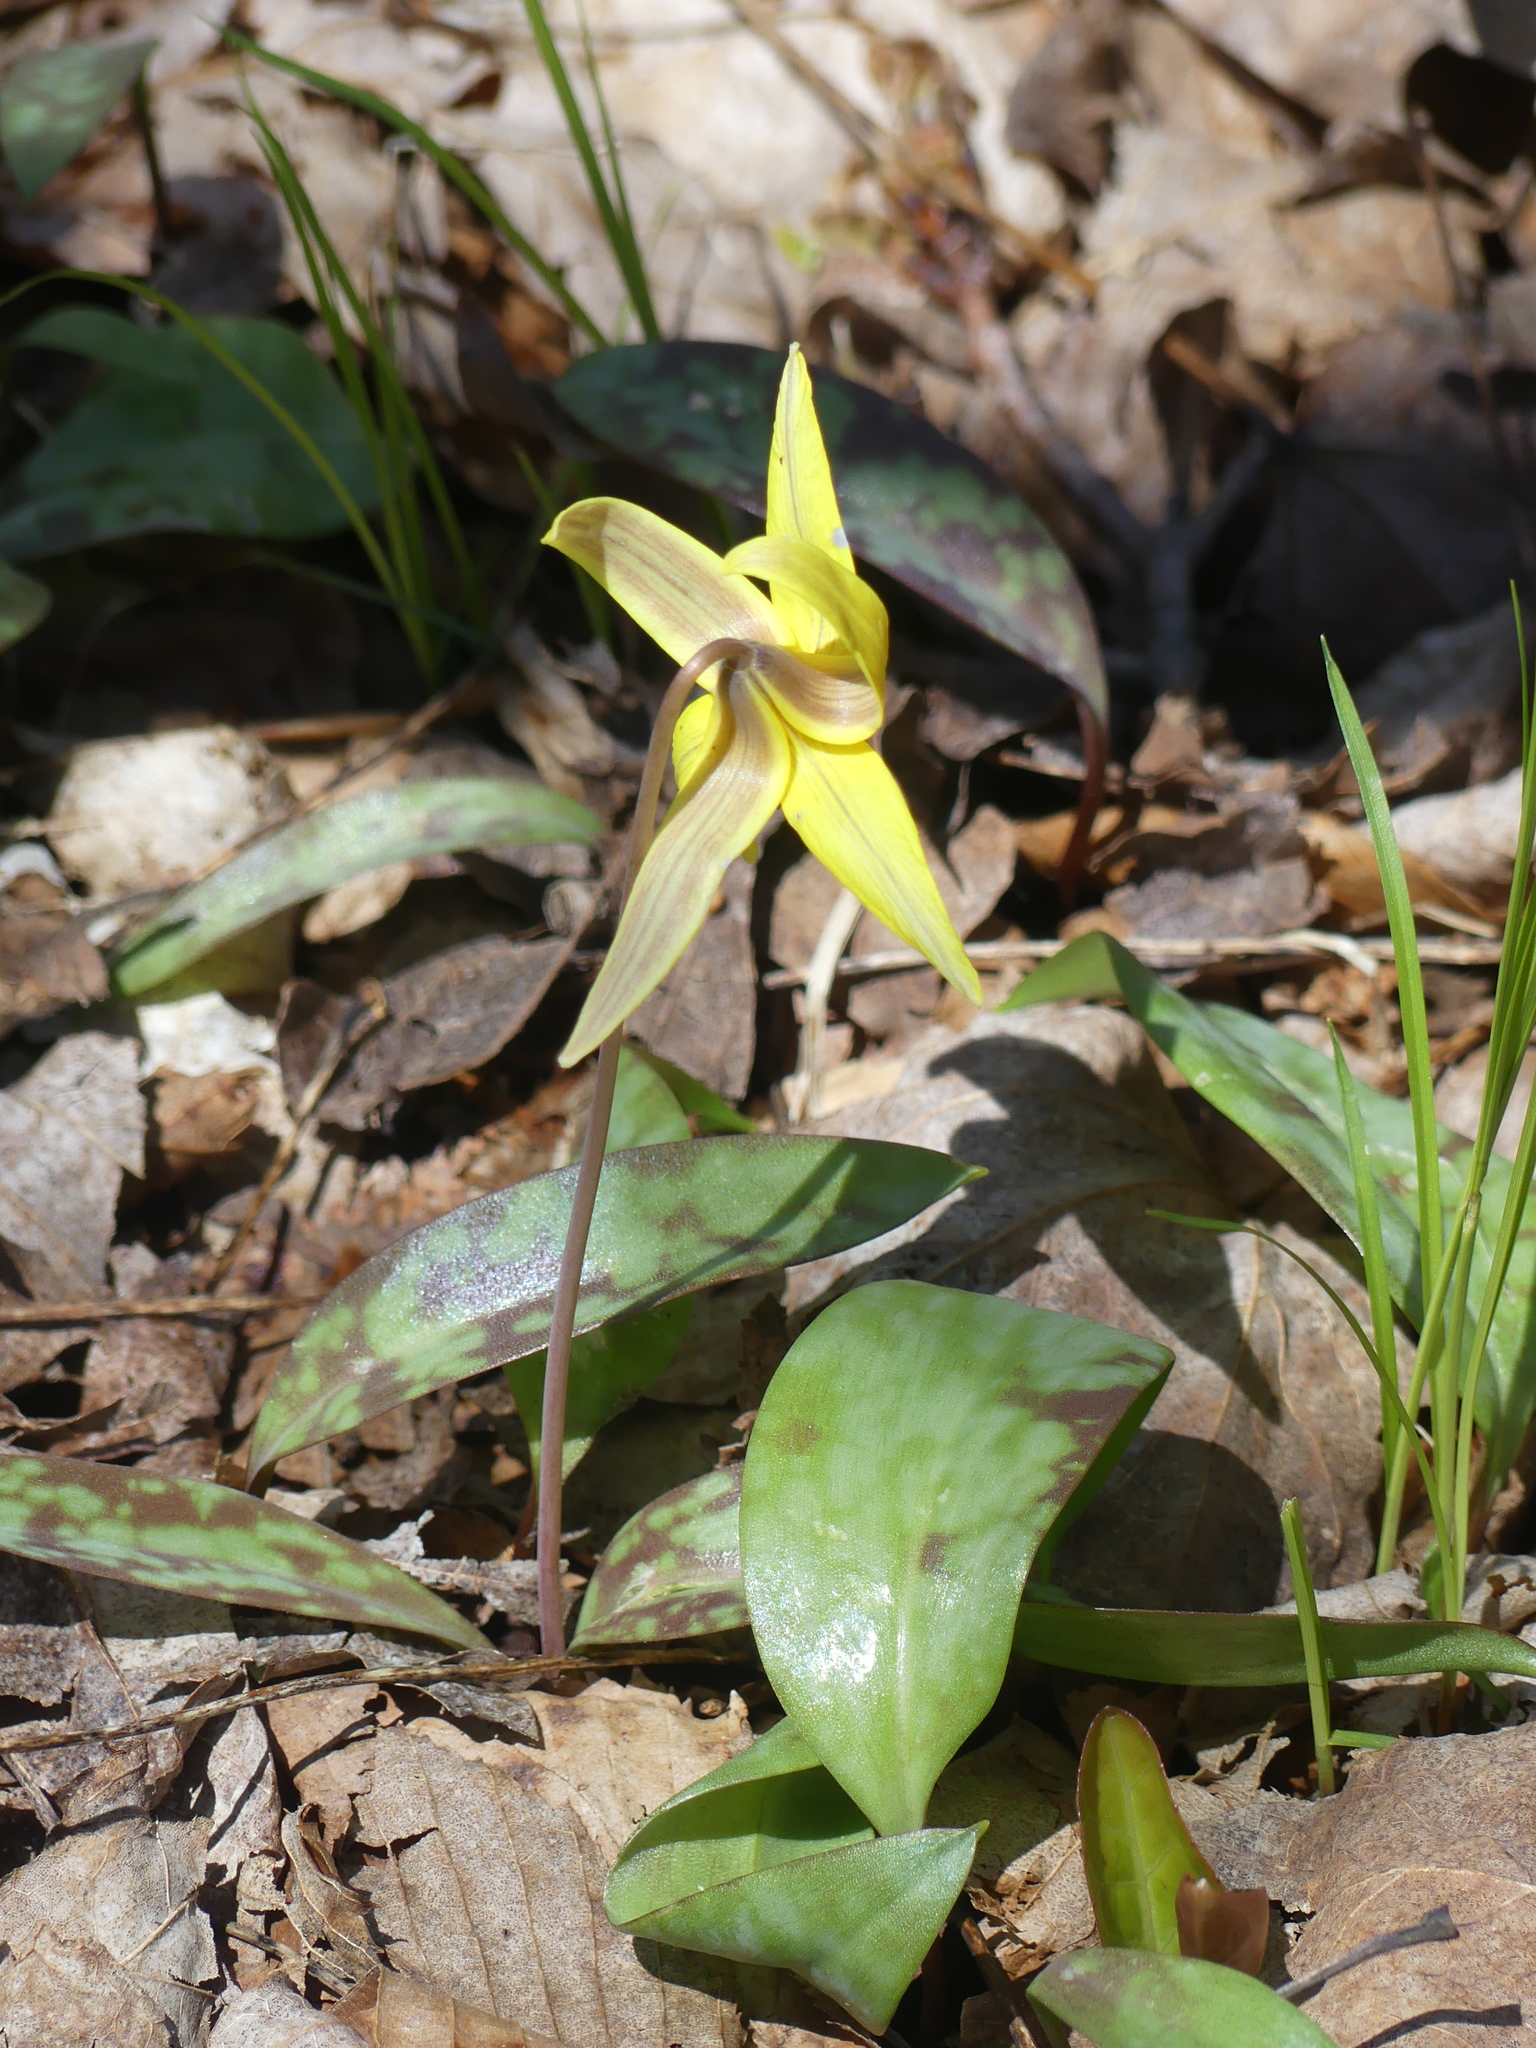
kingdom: Plantae
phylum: Tracheophyta
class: Liliopsida
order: Liliales
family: Liliaceae
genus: Erythronium
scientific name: Erythronium americanum
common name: Yellow adder's-tongue
